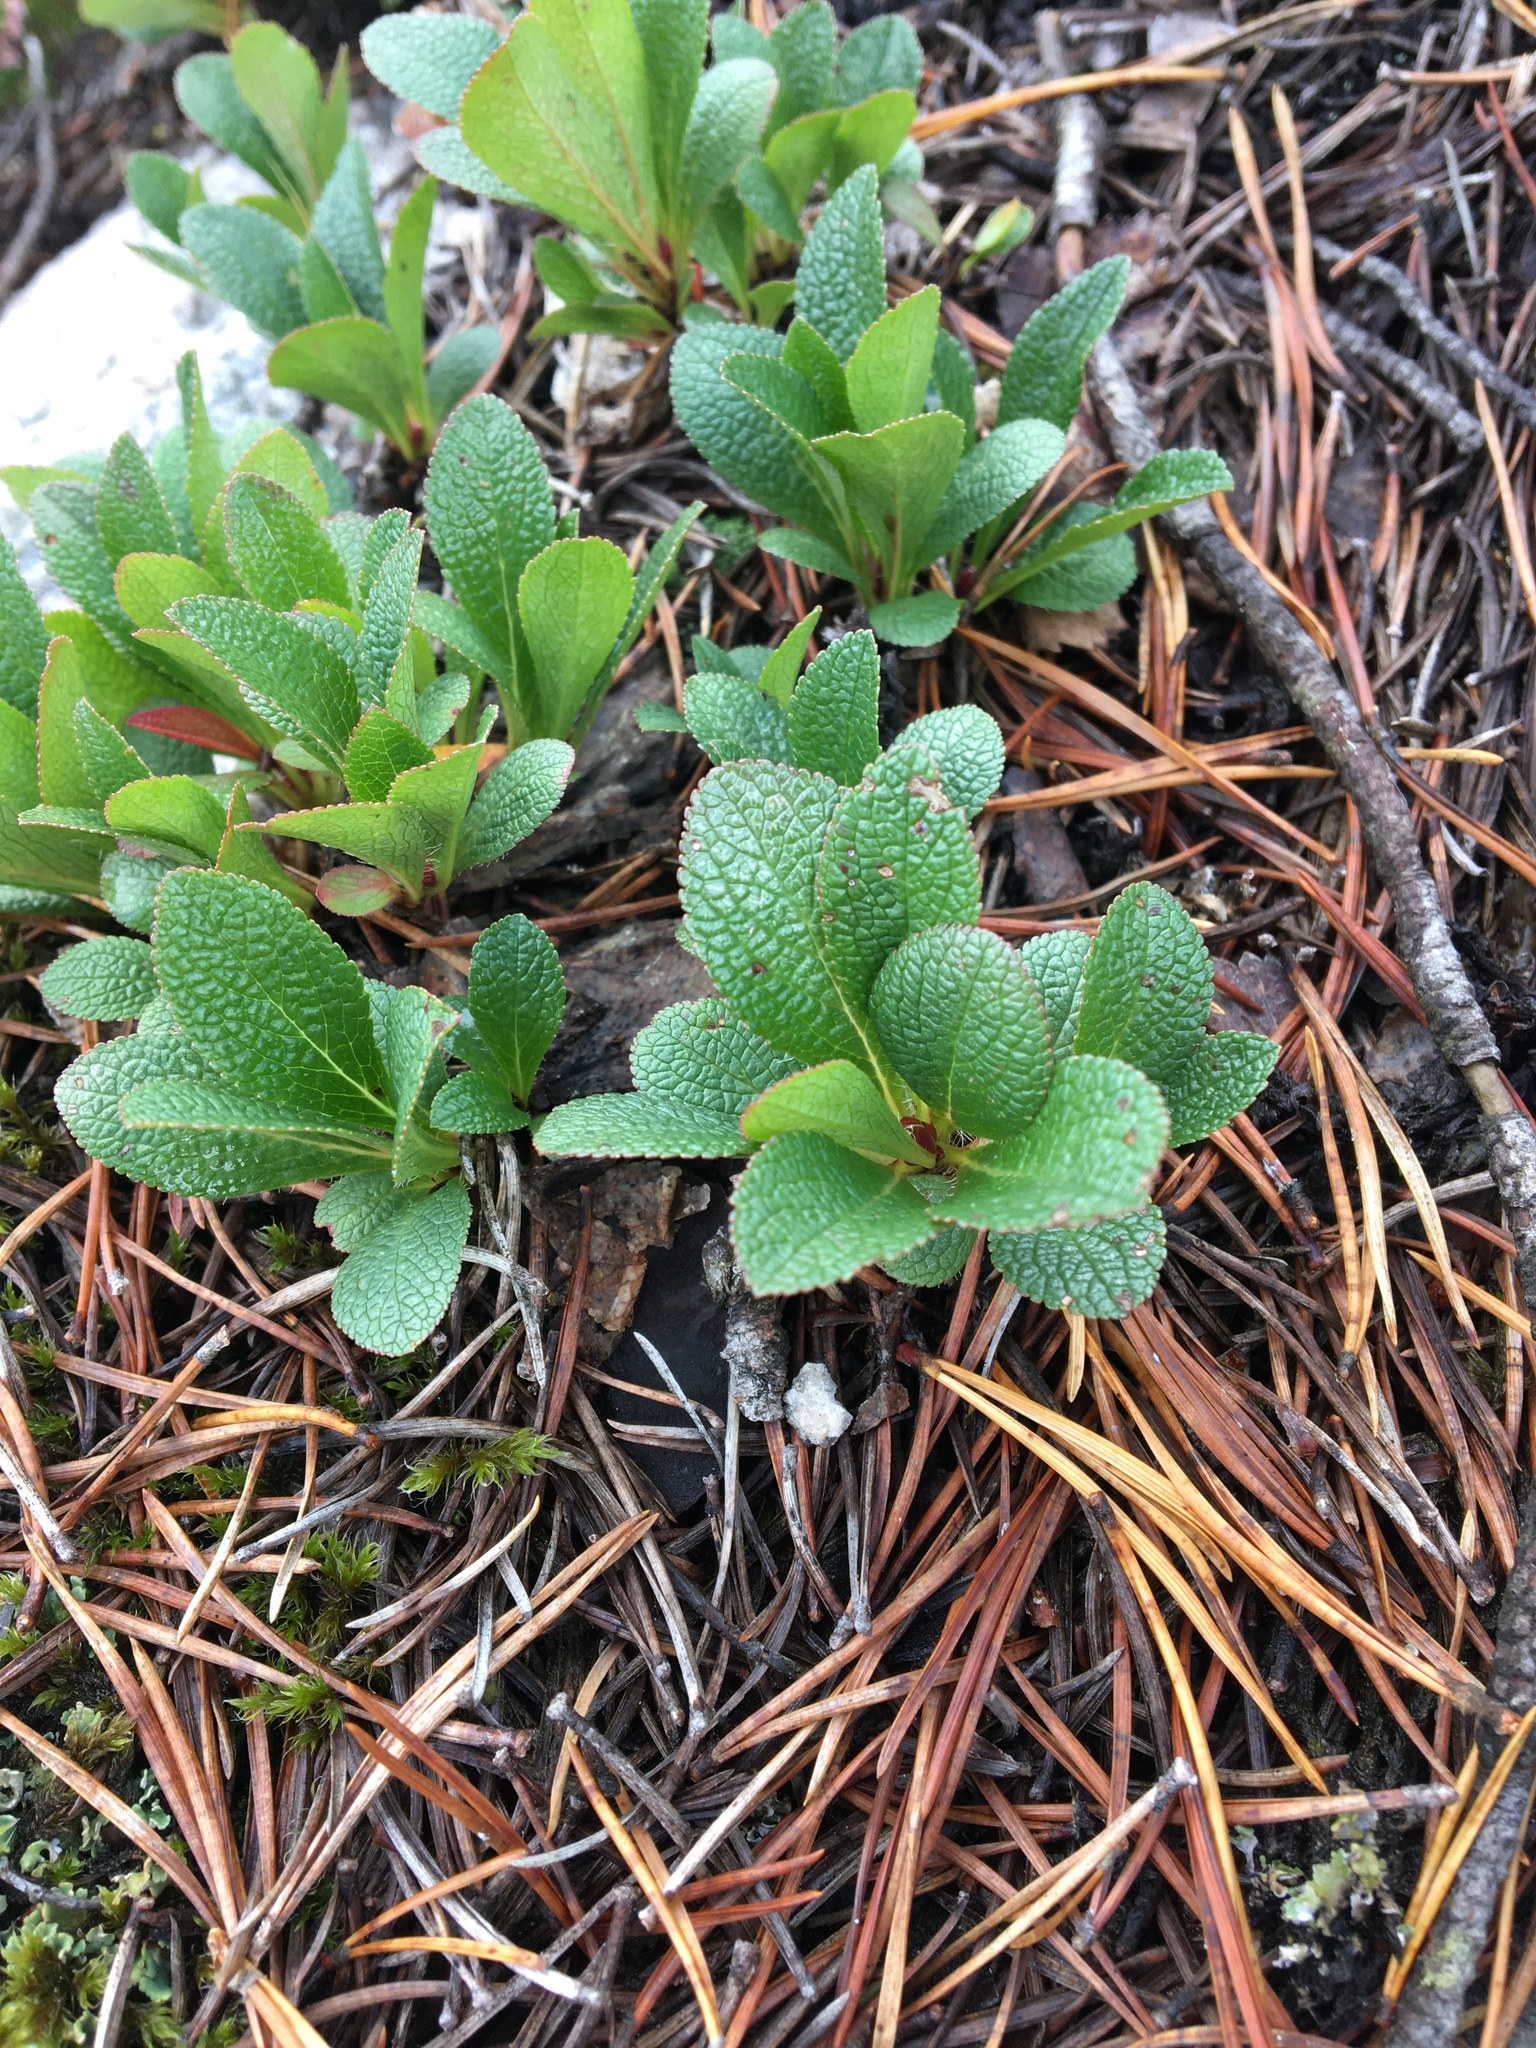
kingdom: Plantae
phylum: Tracheophyta
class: Magnoliopsida
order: Ericales
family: Ericaceae
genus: Arctostaphylos
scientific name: Arctostaphylos alpinus
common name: Alpine bearberry
